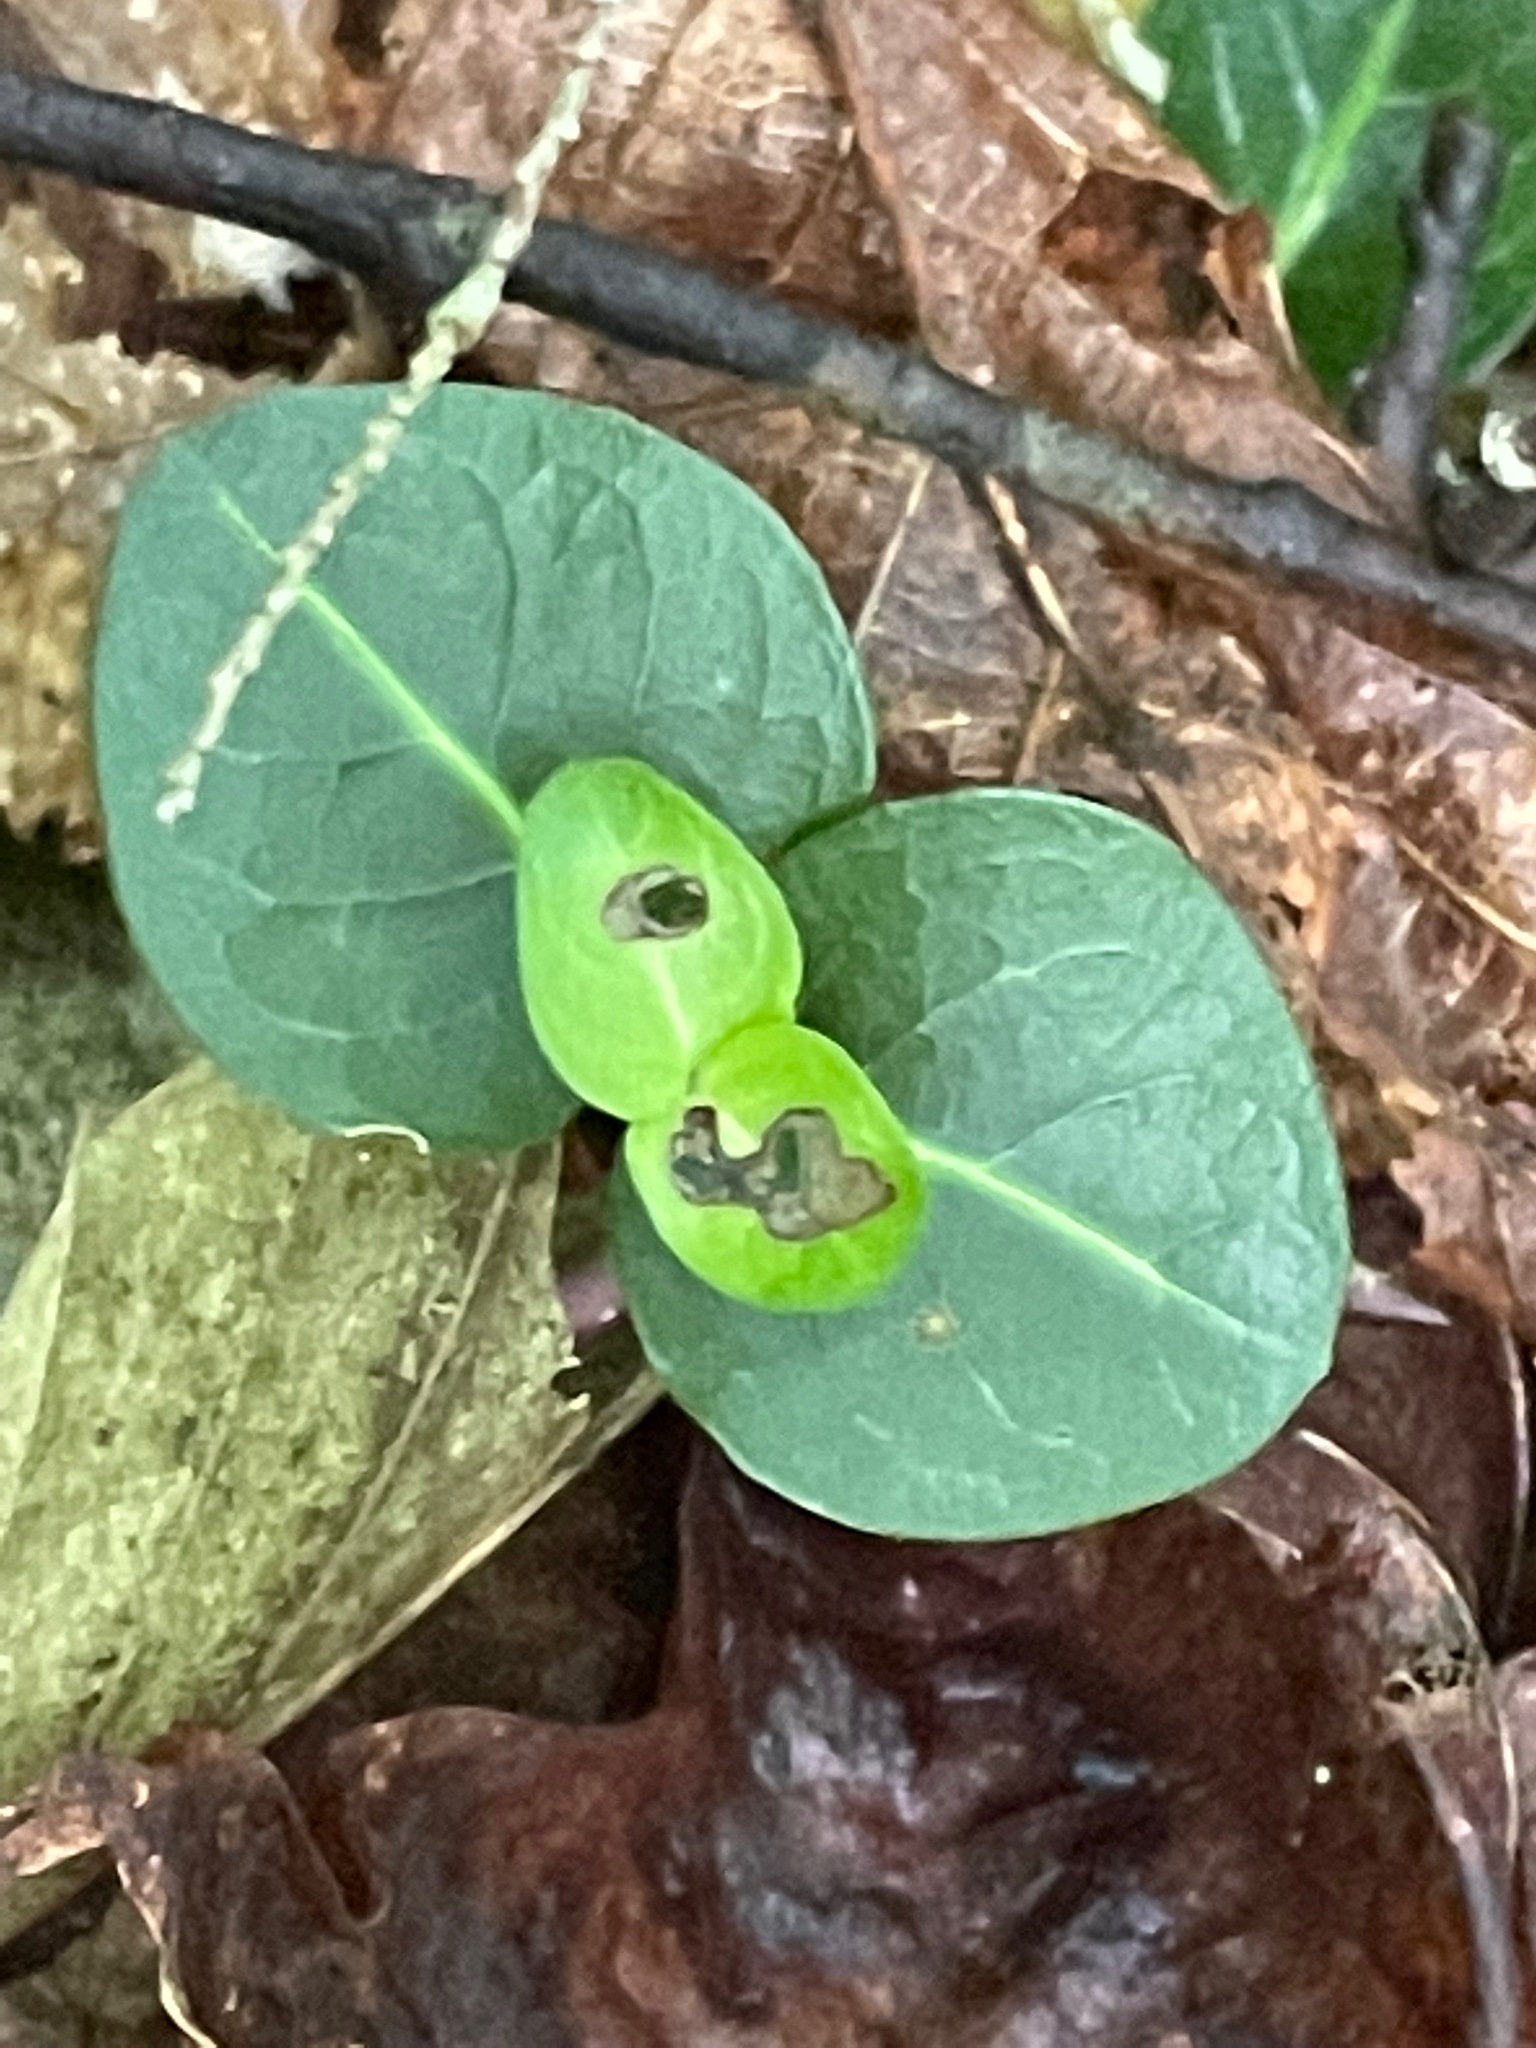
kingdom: Plantae
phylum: Tracheophyta
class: Magnoliopsida
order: Gentianales
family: Rubiaceae
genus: Mitchella
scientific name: Mitchella repens
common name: Partridge-berry
